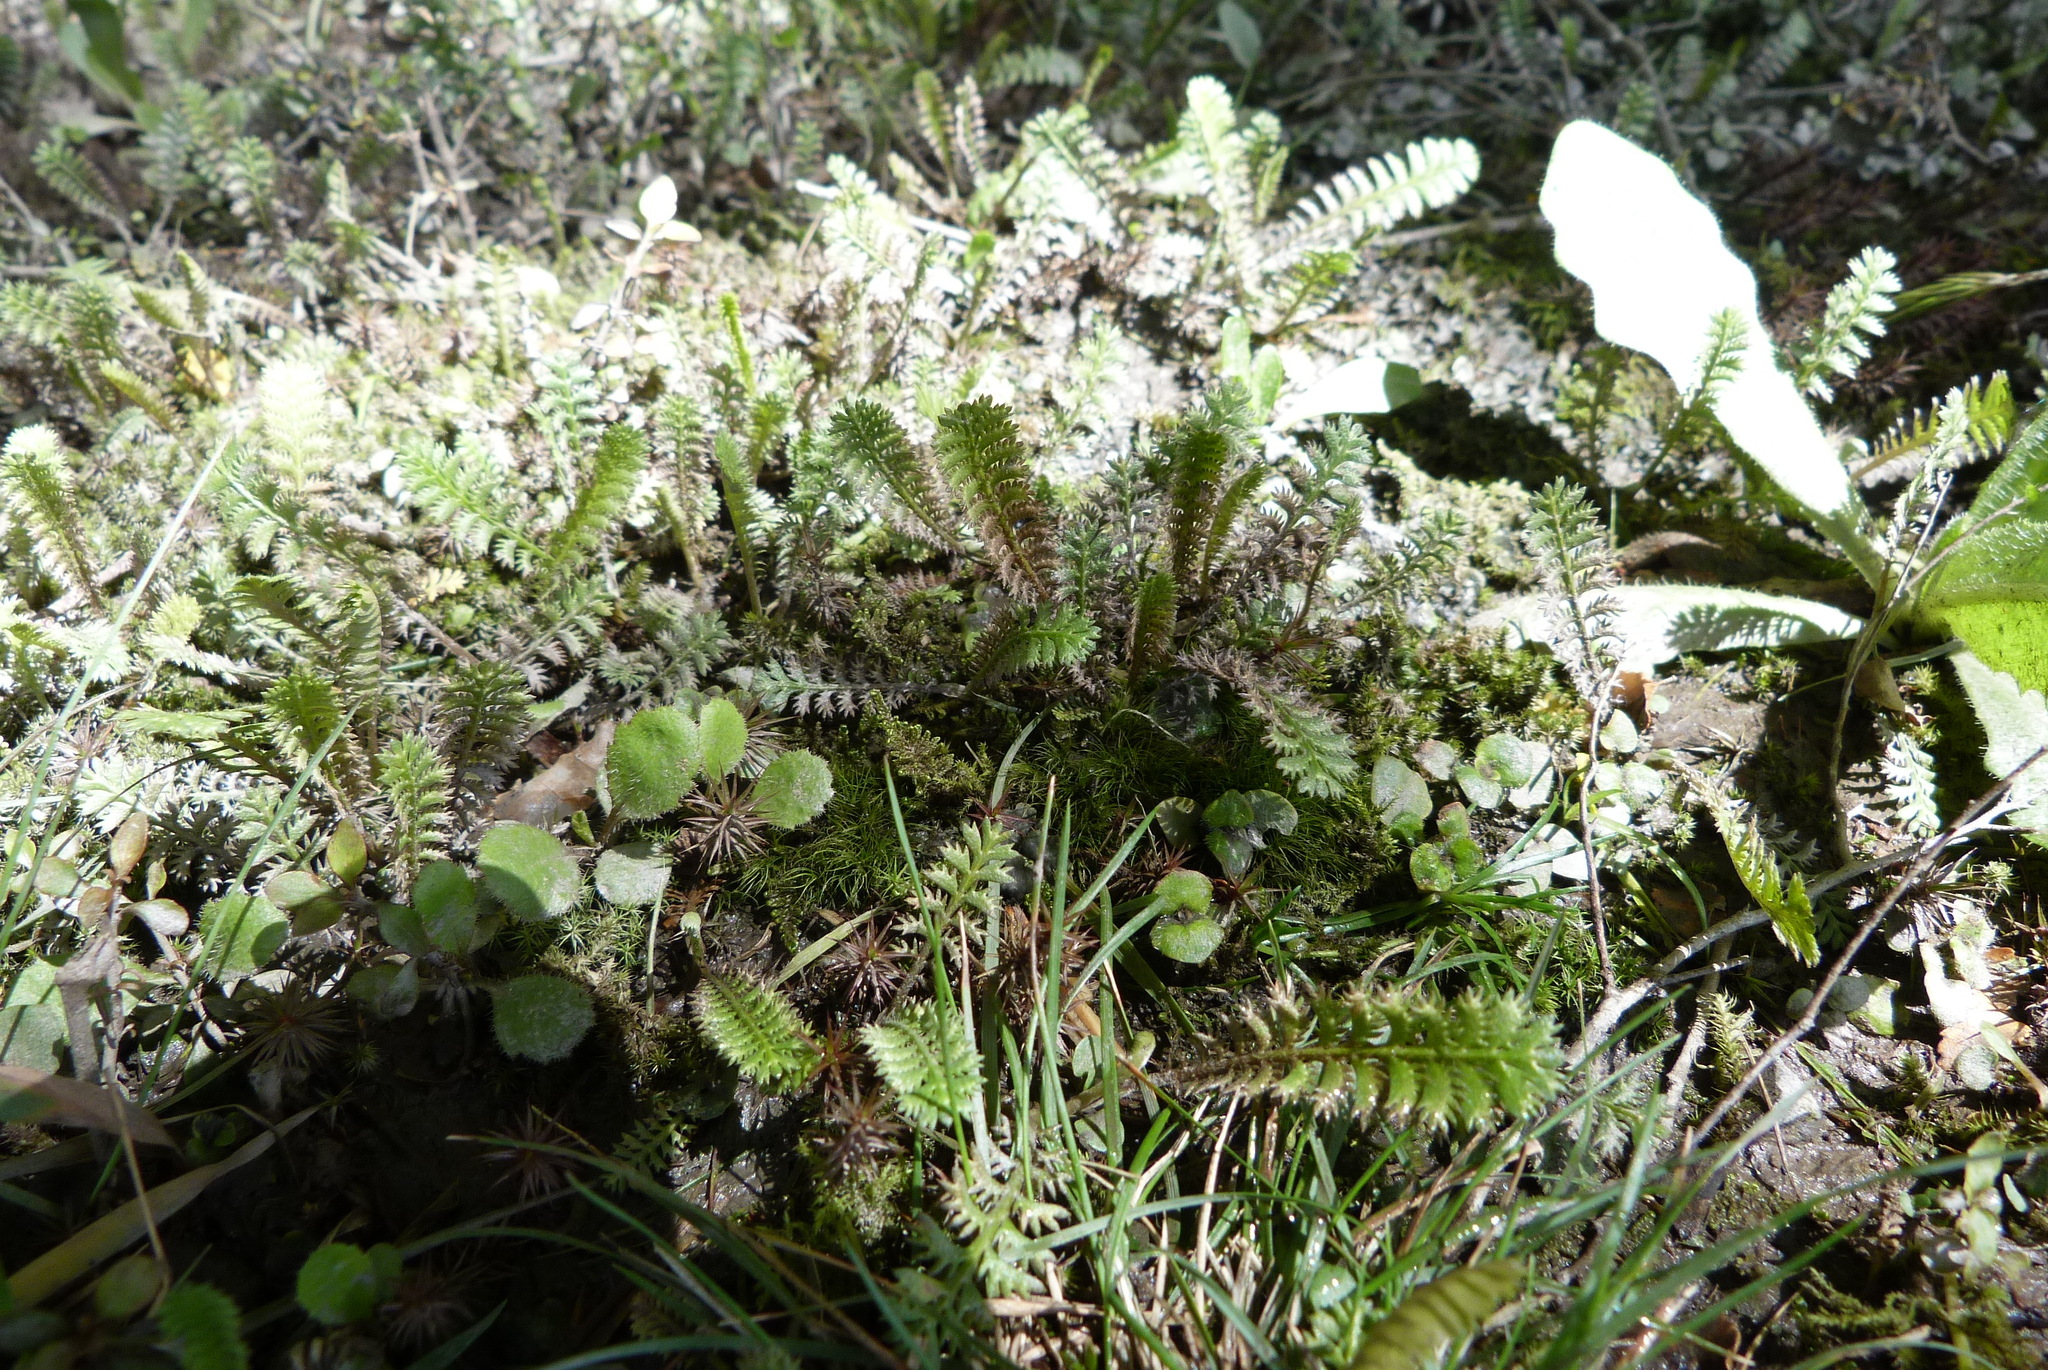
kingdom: Plantae
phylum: Tracheophyta
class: Magnoliopsida
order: Asterales
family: Asteraceae
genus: Leptinella
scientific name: Leptinella squalida
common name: New zealand brass-buttons
